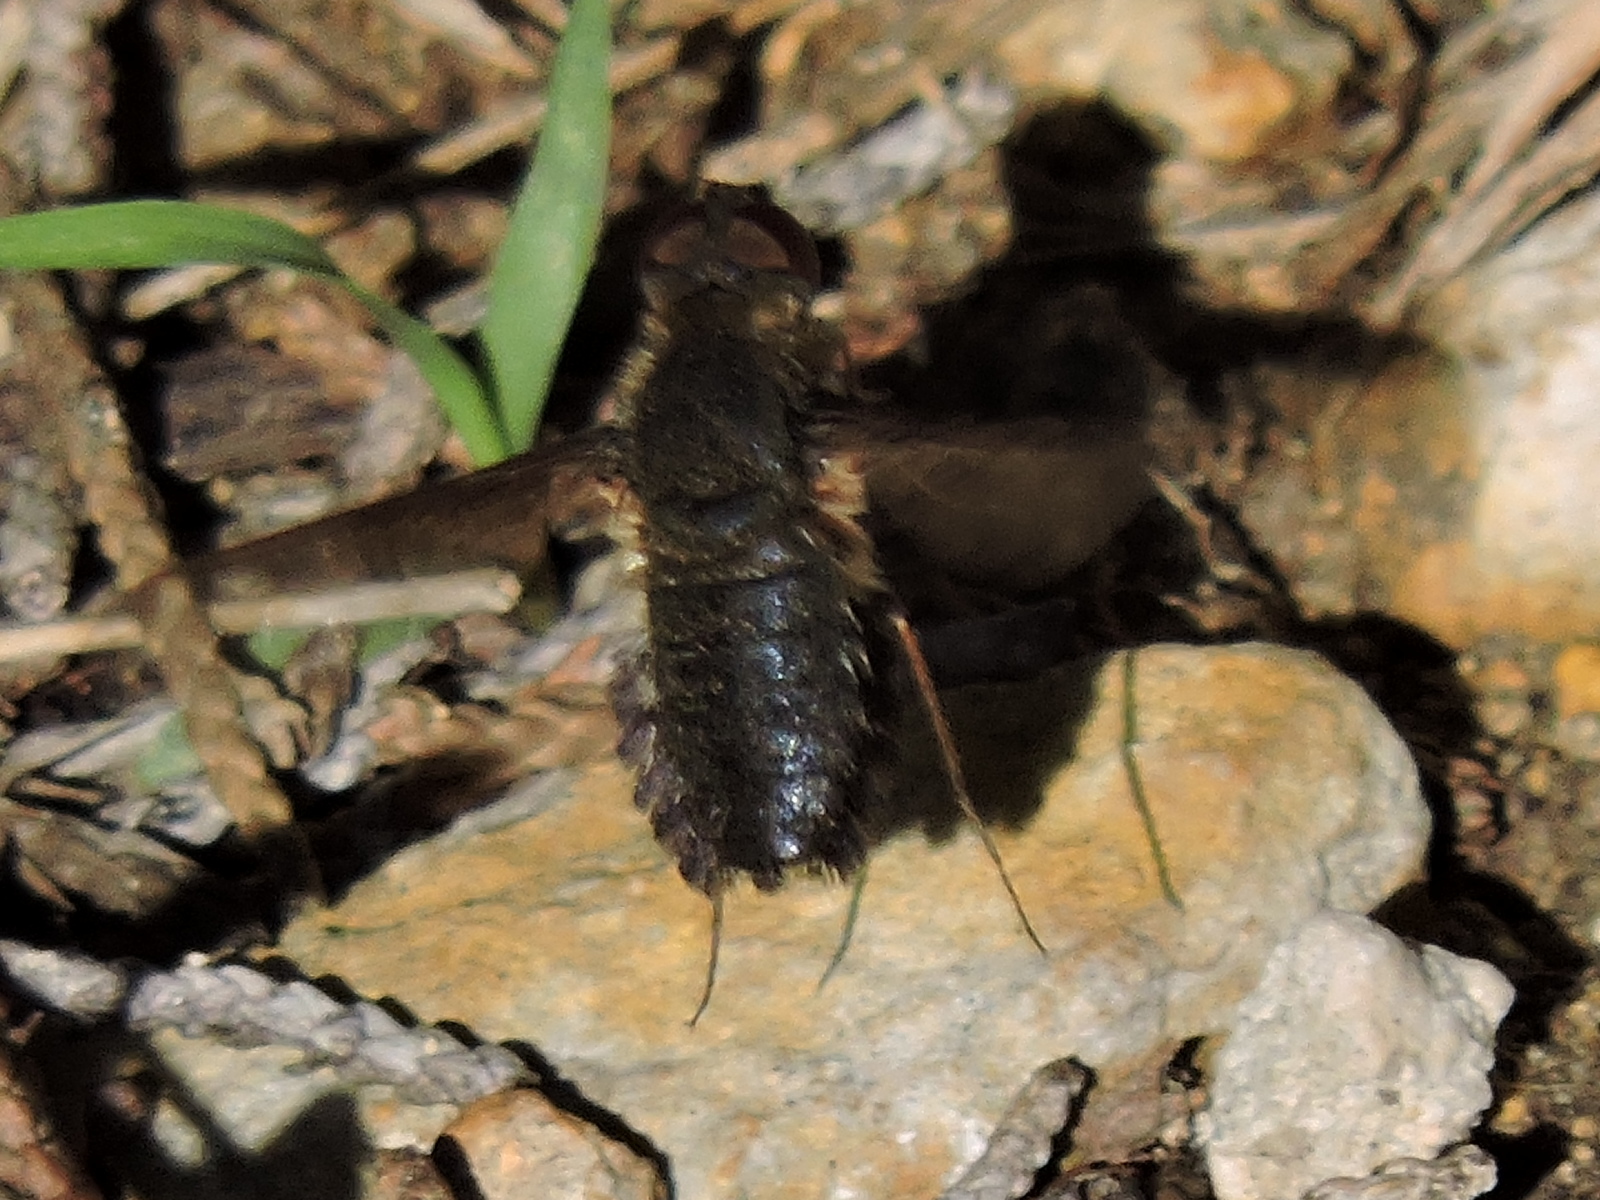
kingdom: Animalia
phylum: Arthropoda
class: Insecta
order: Diptera
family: Bombyliidae
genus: Hemipenthes
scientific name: Hemipenthes scylla
